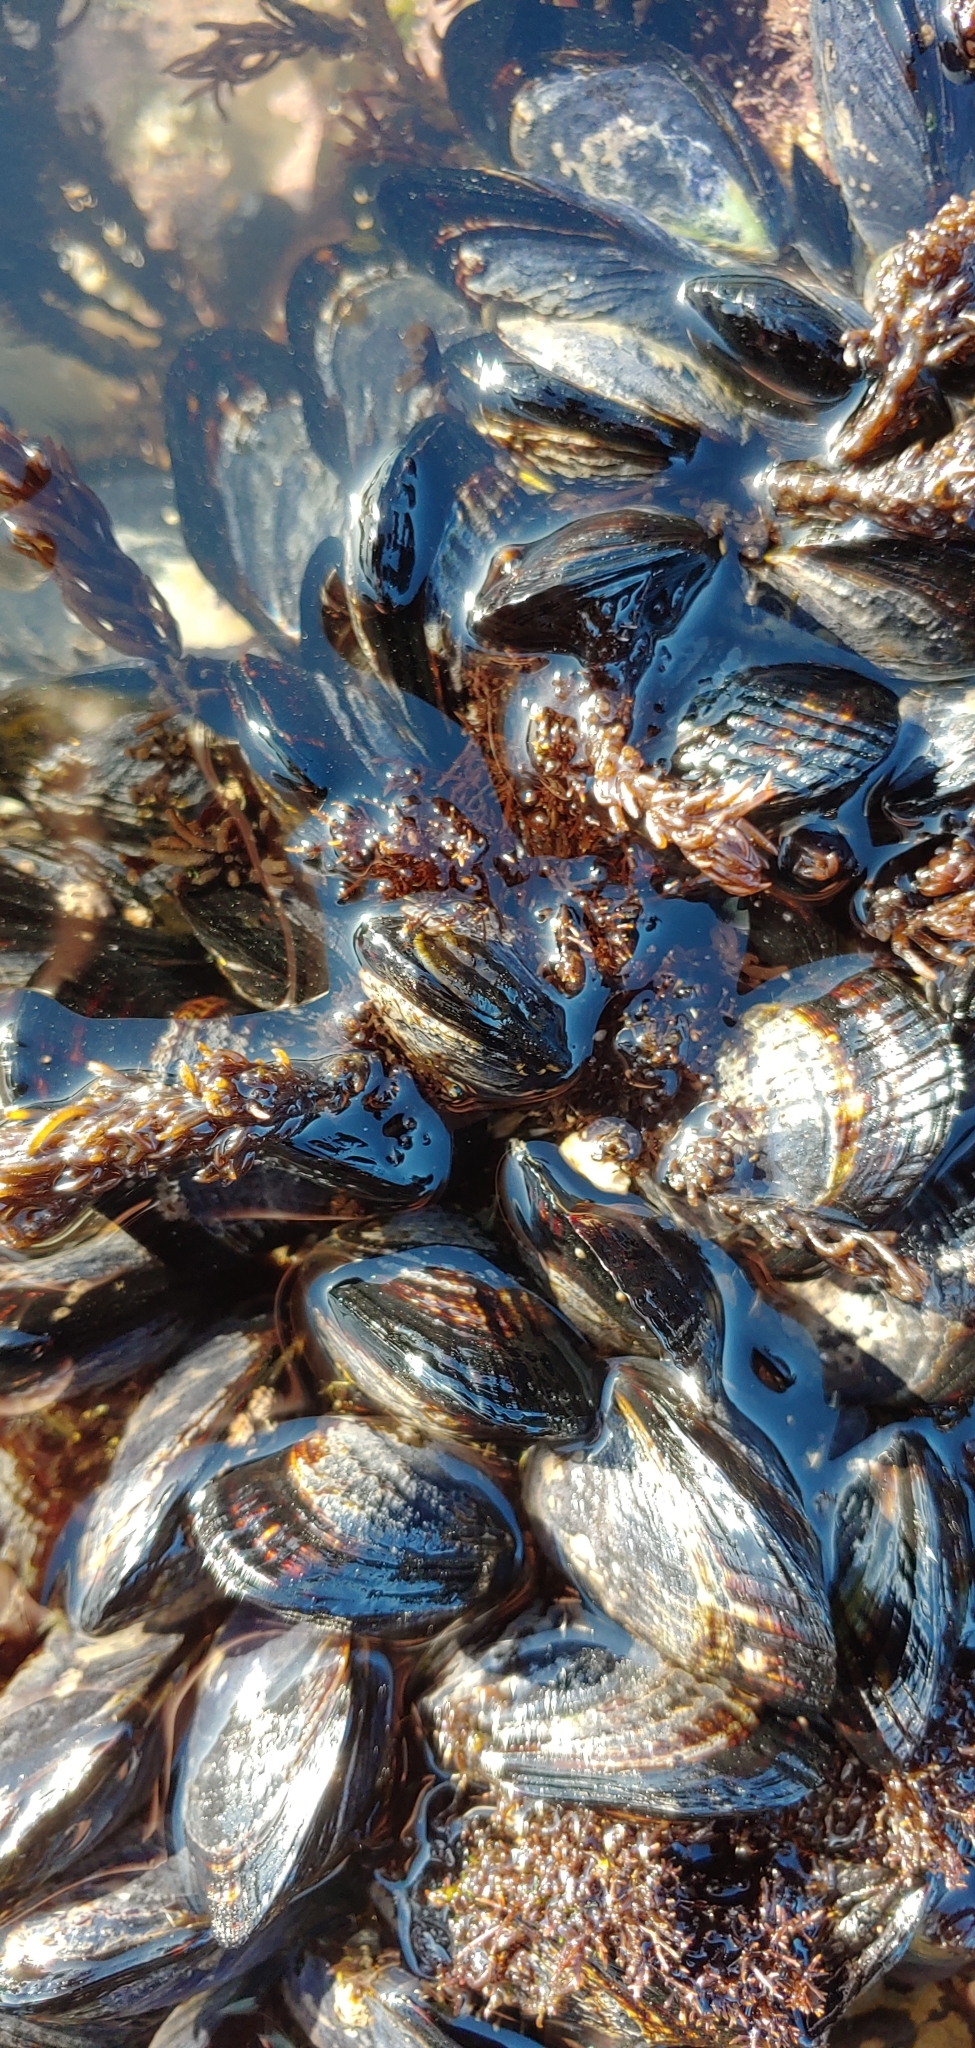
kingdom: Animalia
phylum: Mollusca
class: Bivalvia
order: Mytilida
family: Mytilidae
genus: Mytilus
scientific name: Mytilus californianus
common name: California mussel
